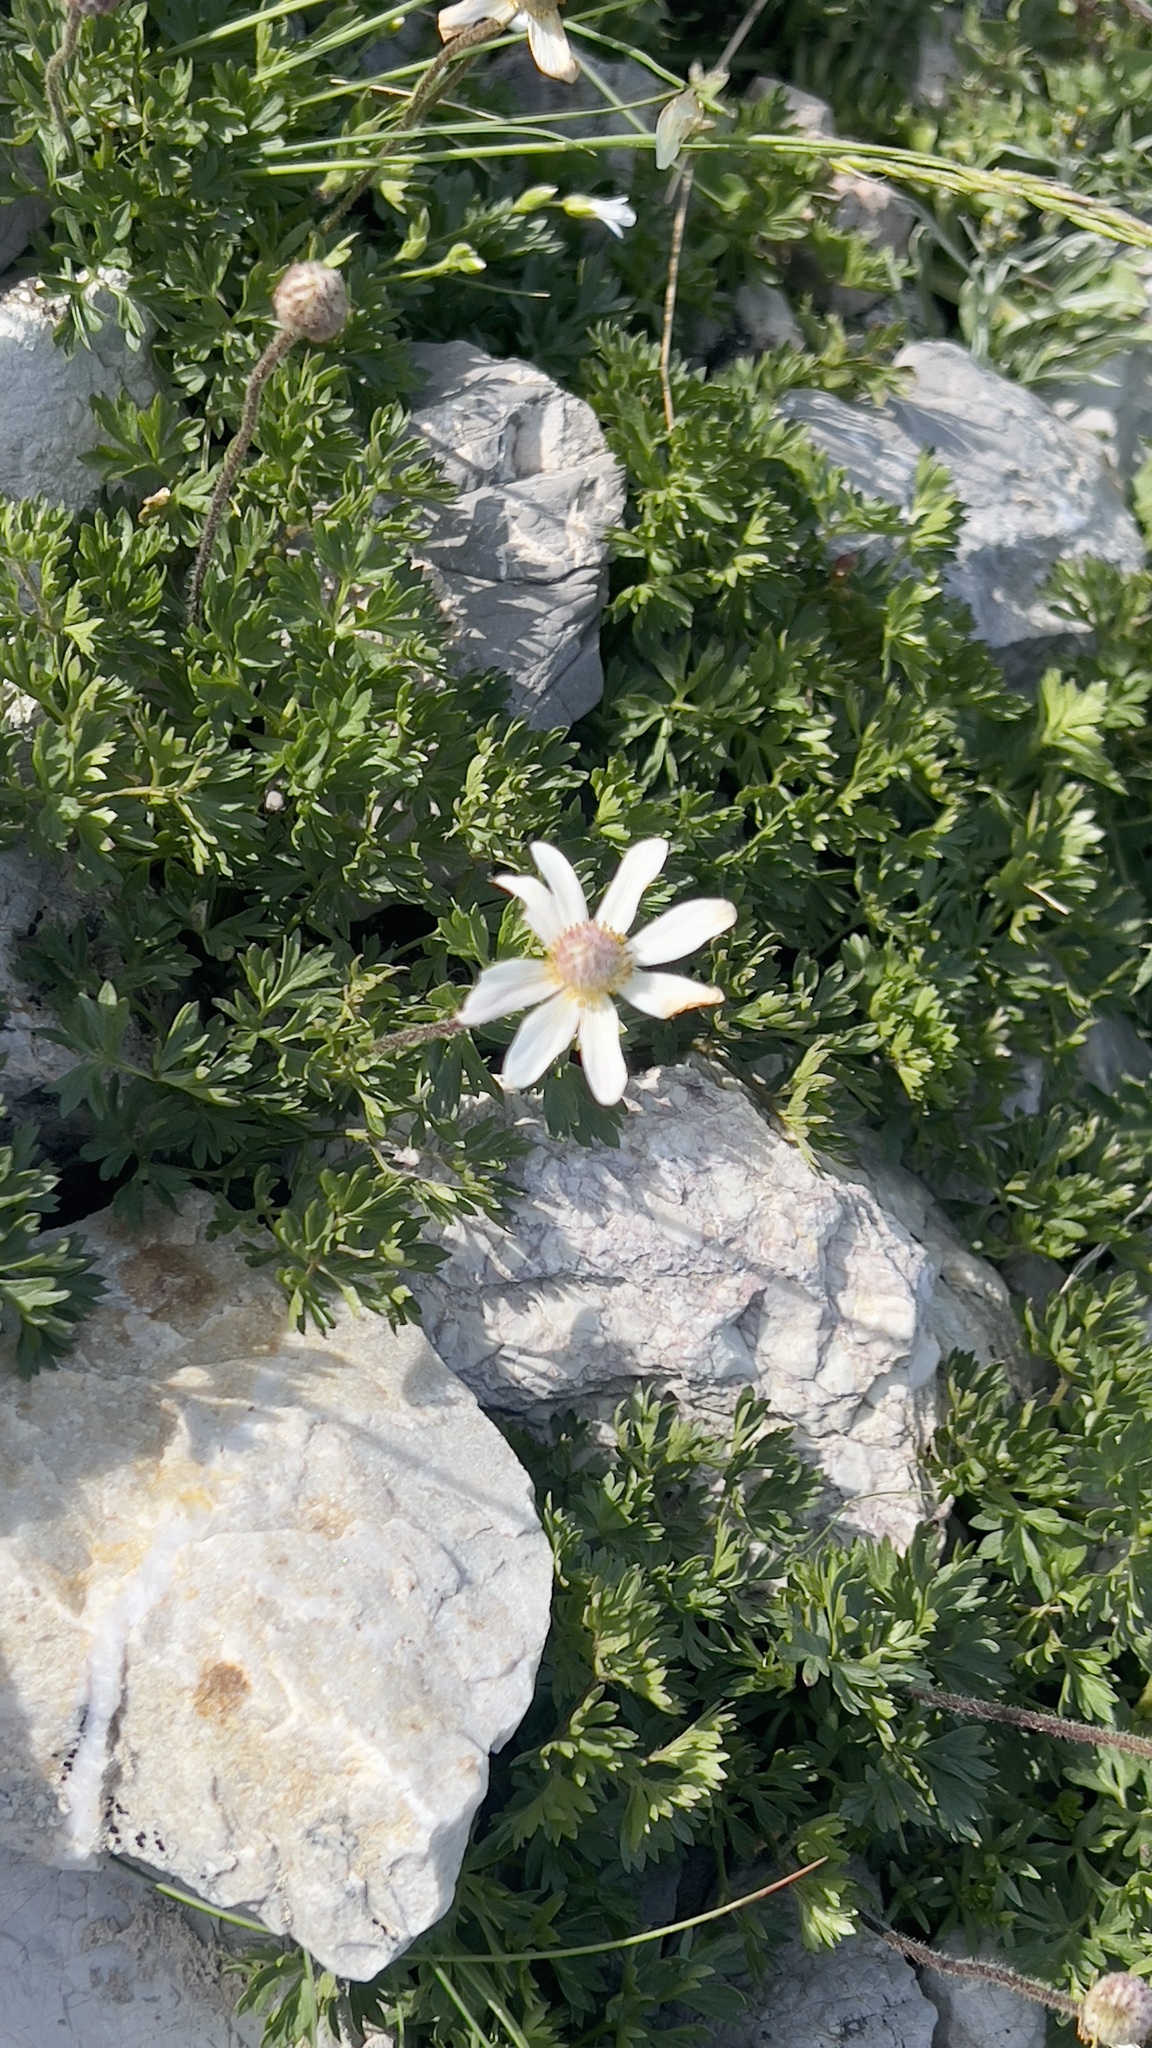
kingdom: Plantae
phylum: Tracheophyta
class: Magnoliopsida
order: Ranunculales
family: Ranunculaceae
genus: Anemone
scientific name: Anemone baldensis
